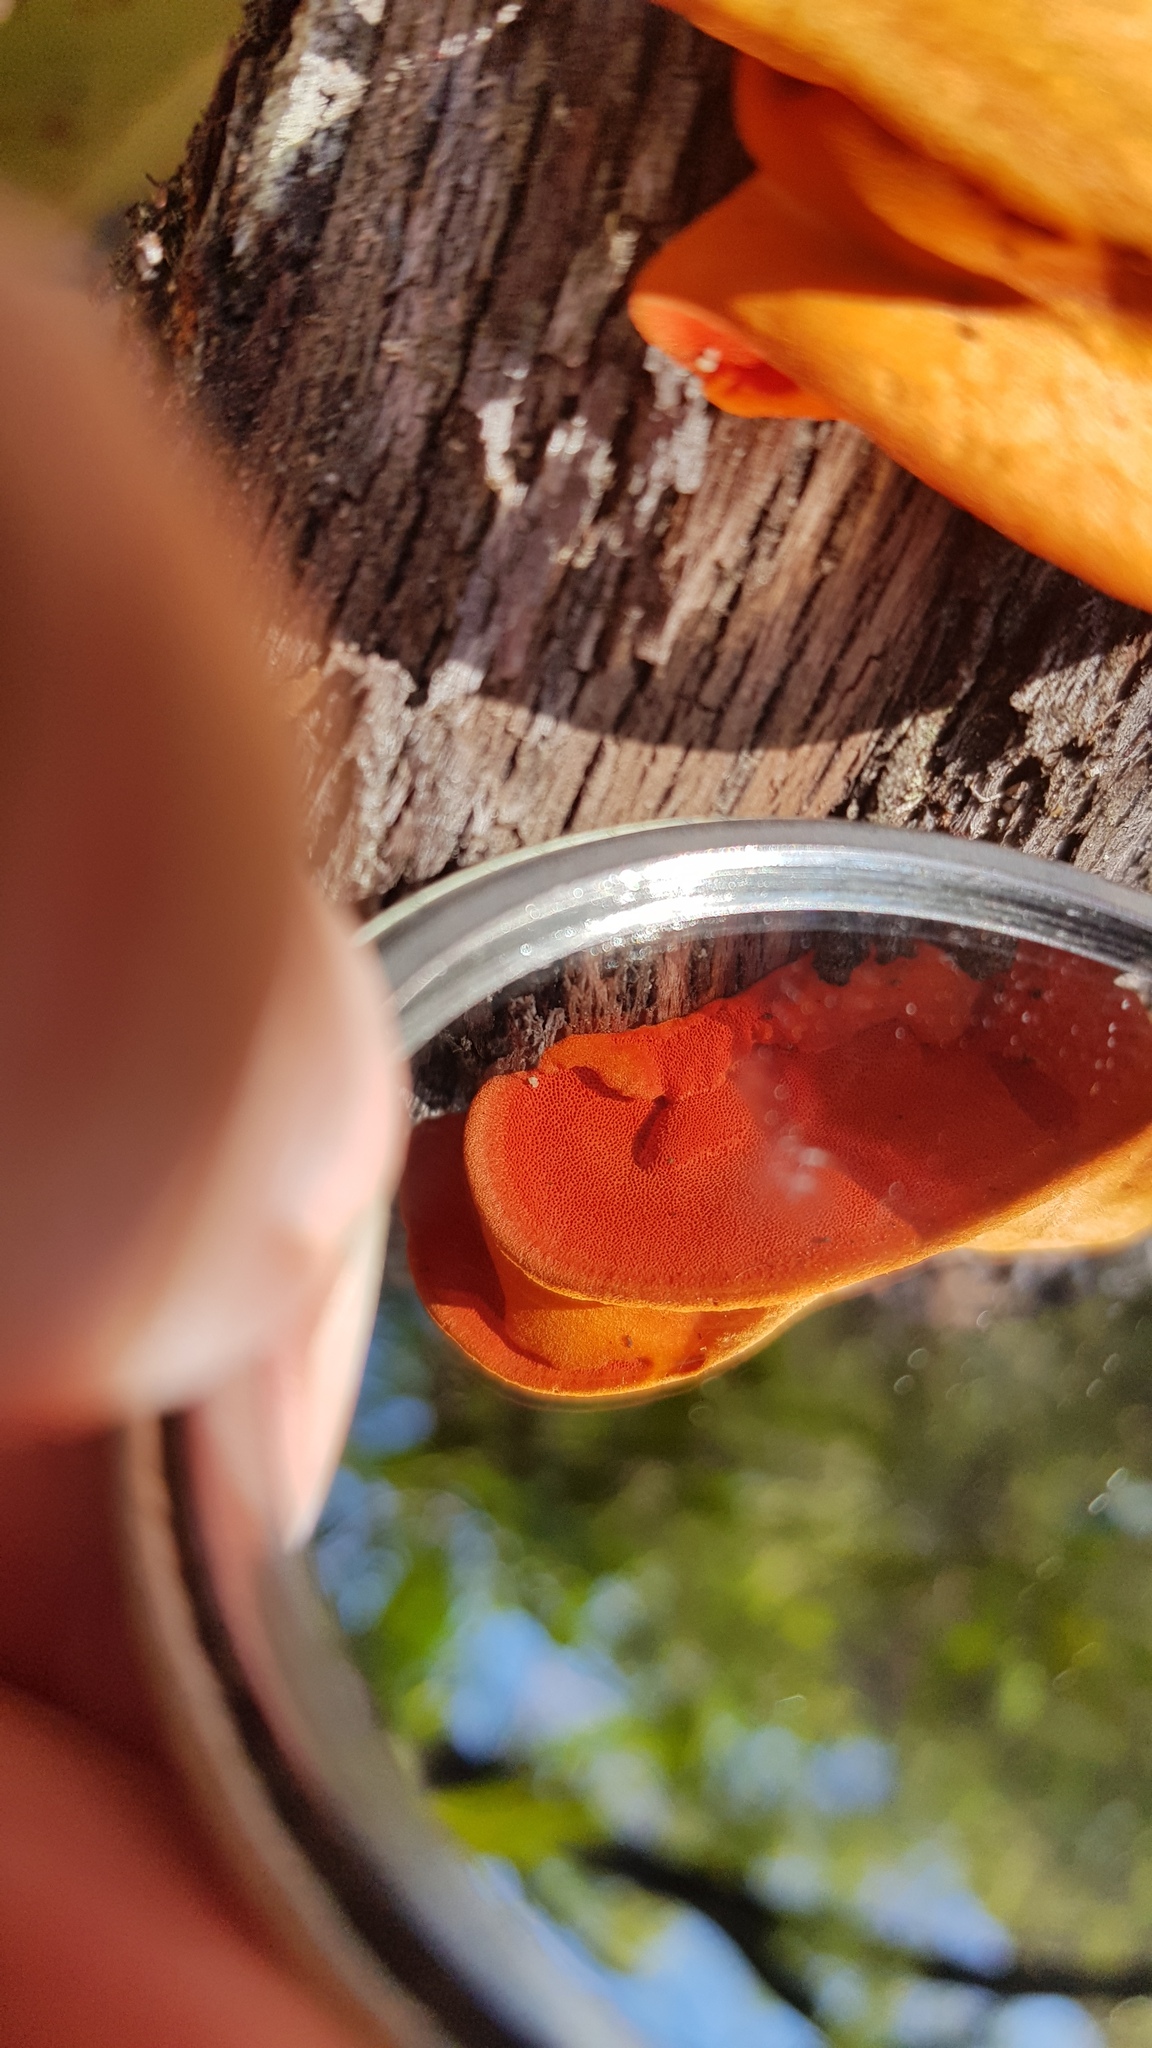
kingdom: Fungi
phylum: Basidiomycota
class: Agaricomycetes
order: Polyporales
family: Polyporaceae
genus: Trametes
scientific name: Trametes coccinea
